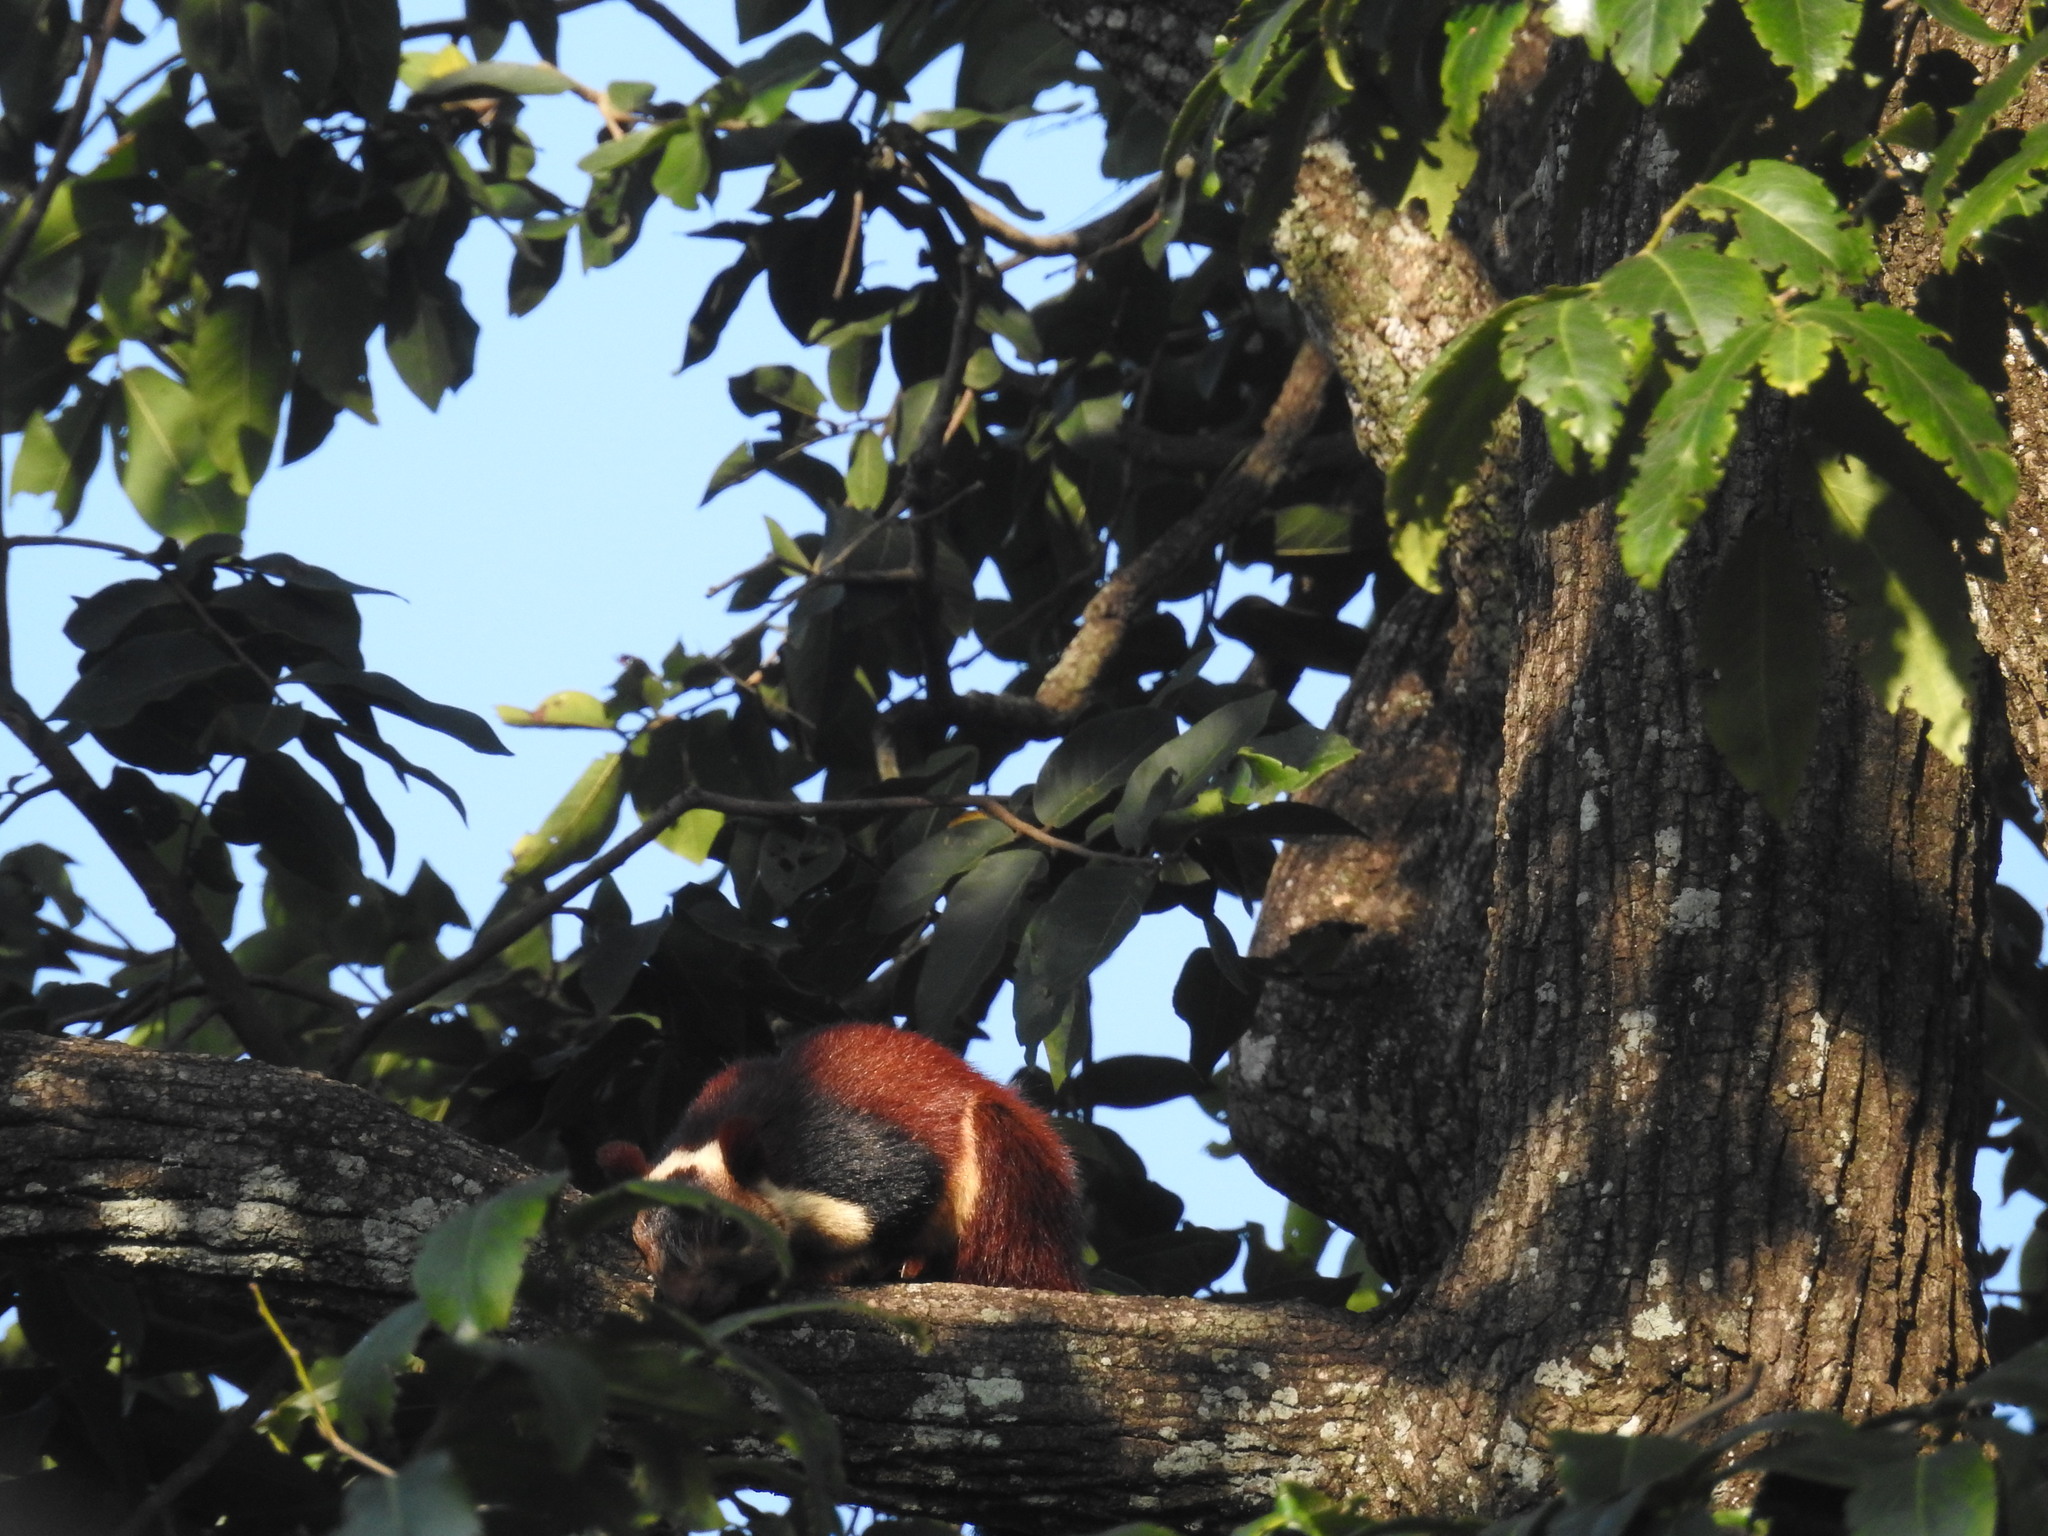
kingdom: Animalia
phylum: Chordata
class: Mammalia
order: Rodentia
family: Sciuridae
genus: Ratufa
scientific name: Ratufa indica
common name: Indian giant squirrel
